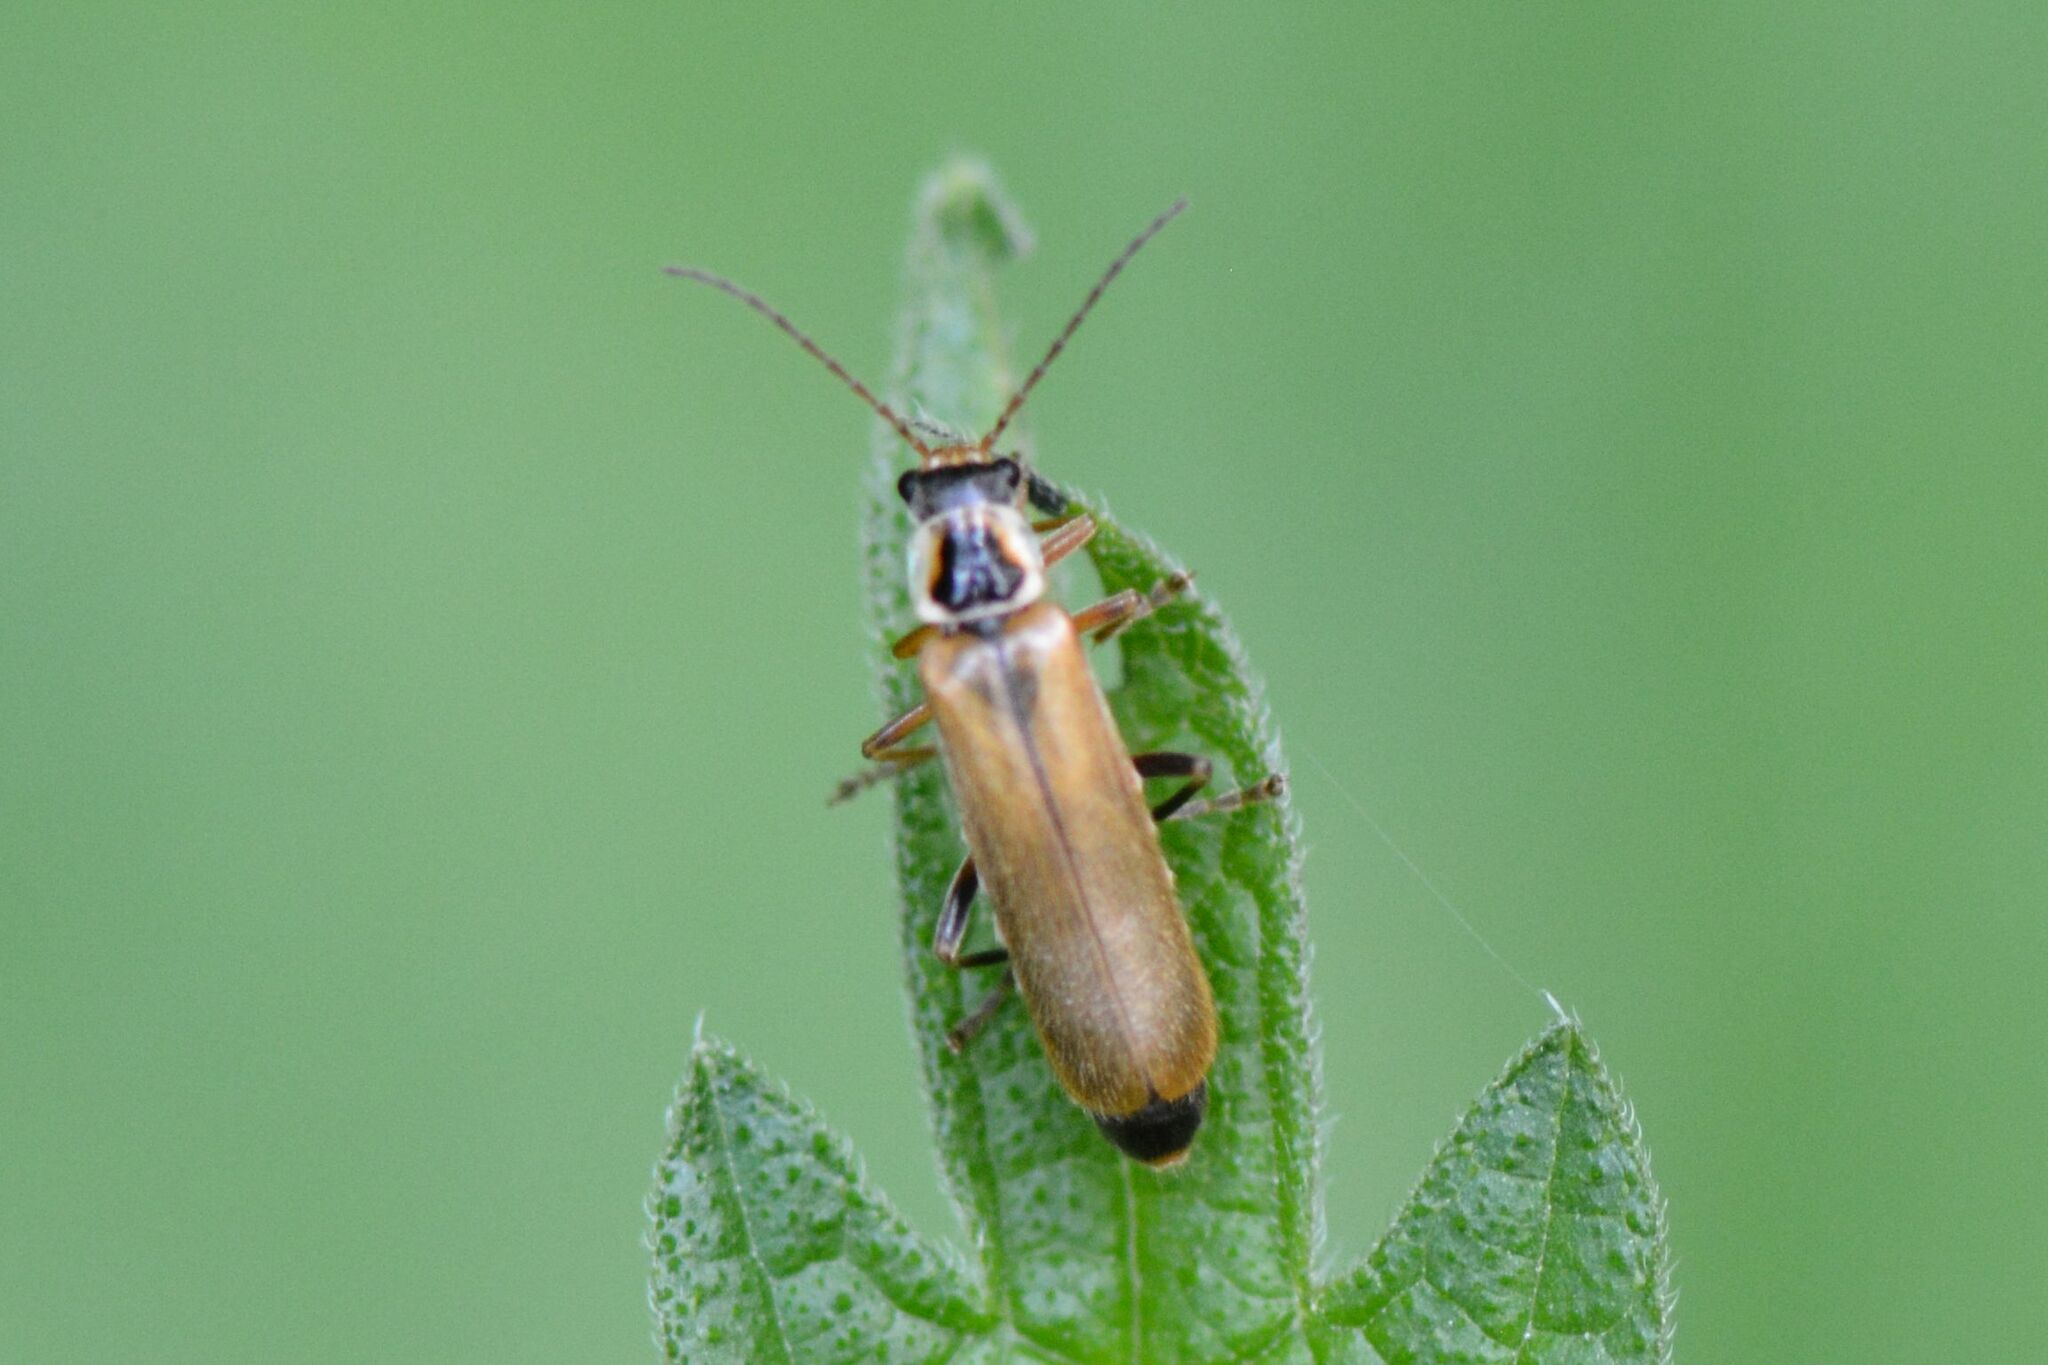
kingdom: Animalia
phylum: Arthropoda
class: Insecta
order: Coleoptera
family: Cantharidae
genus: Cantharis
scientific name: Cantharis decipiens
